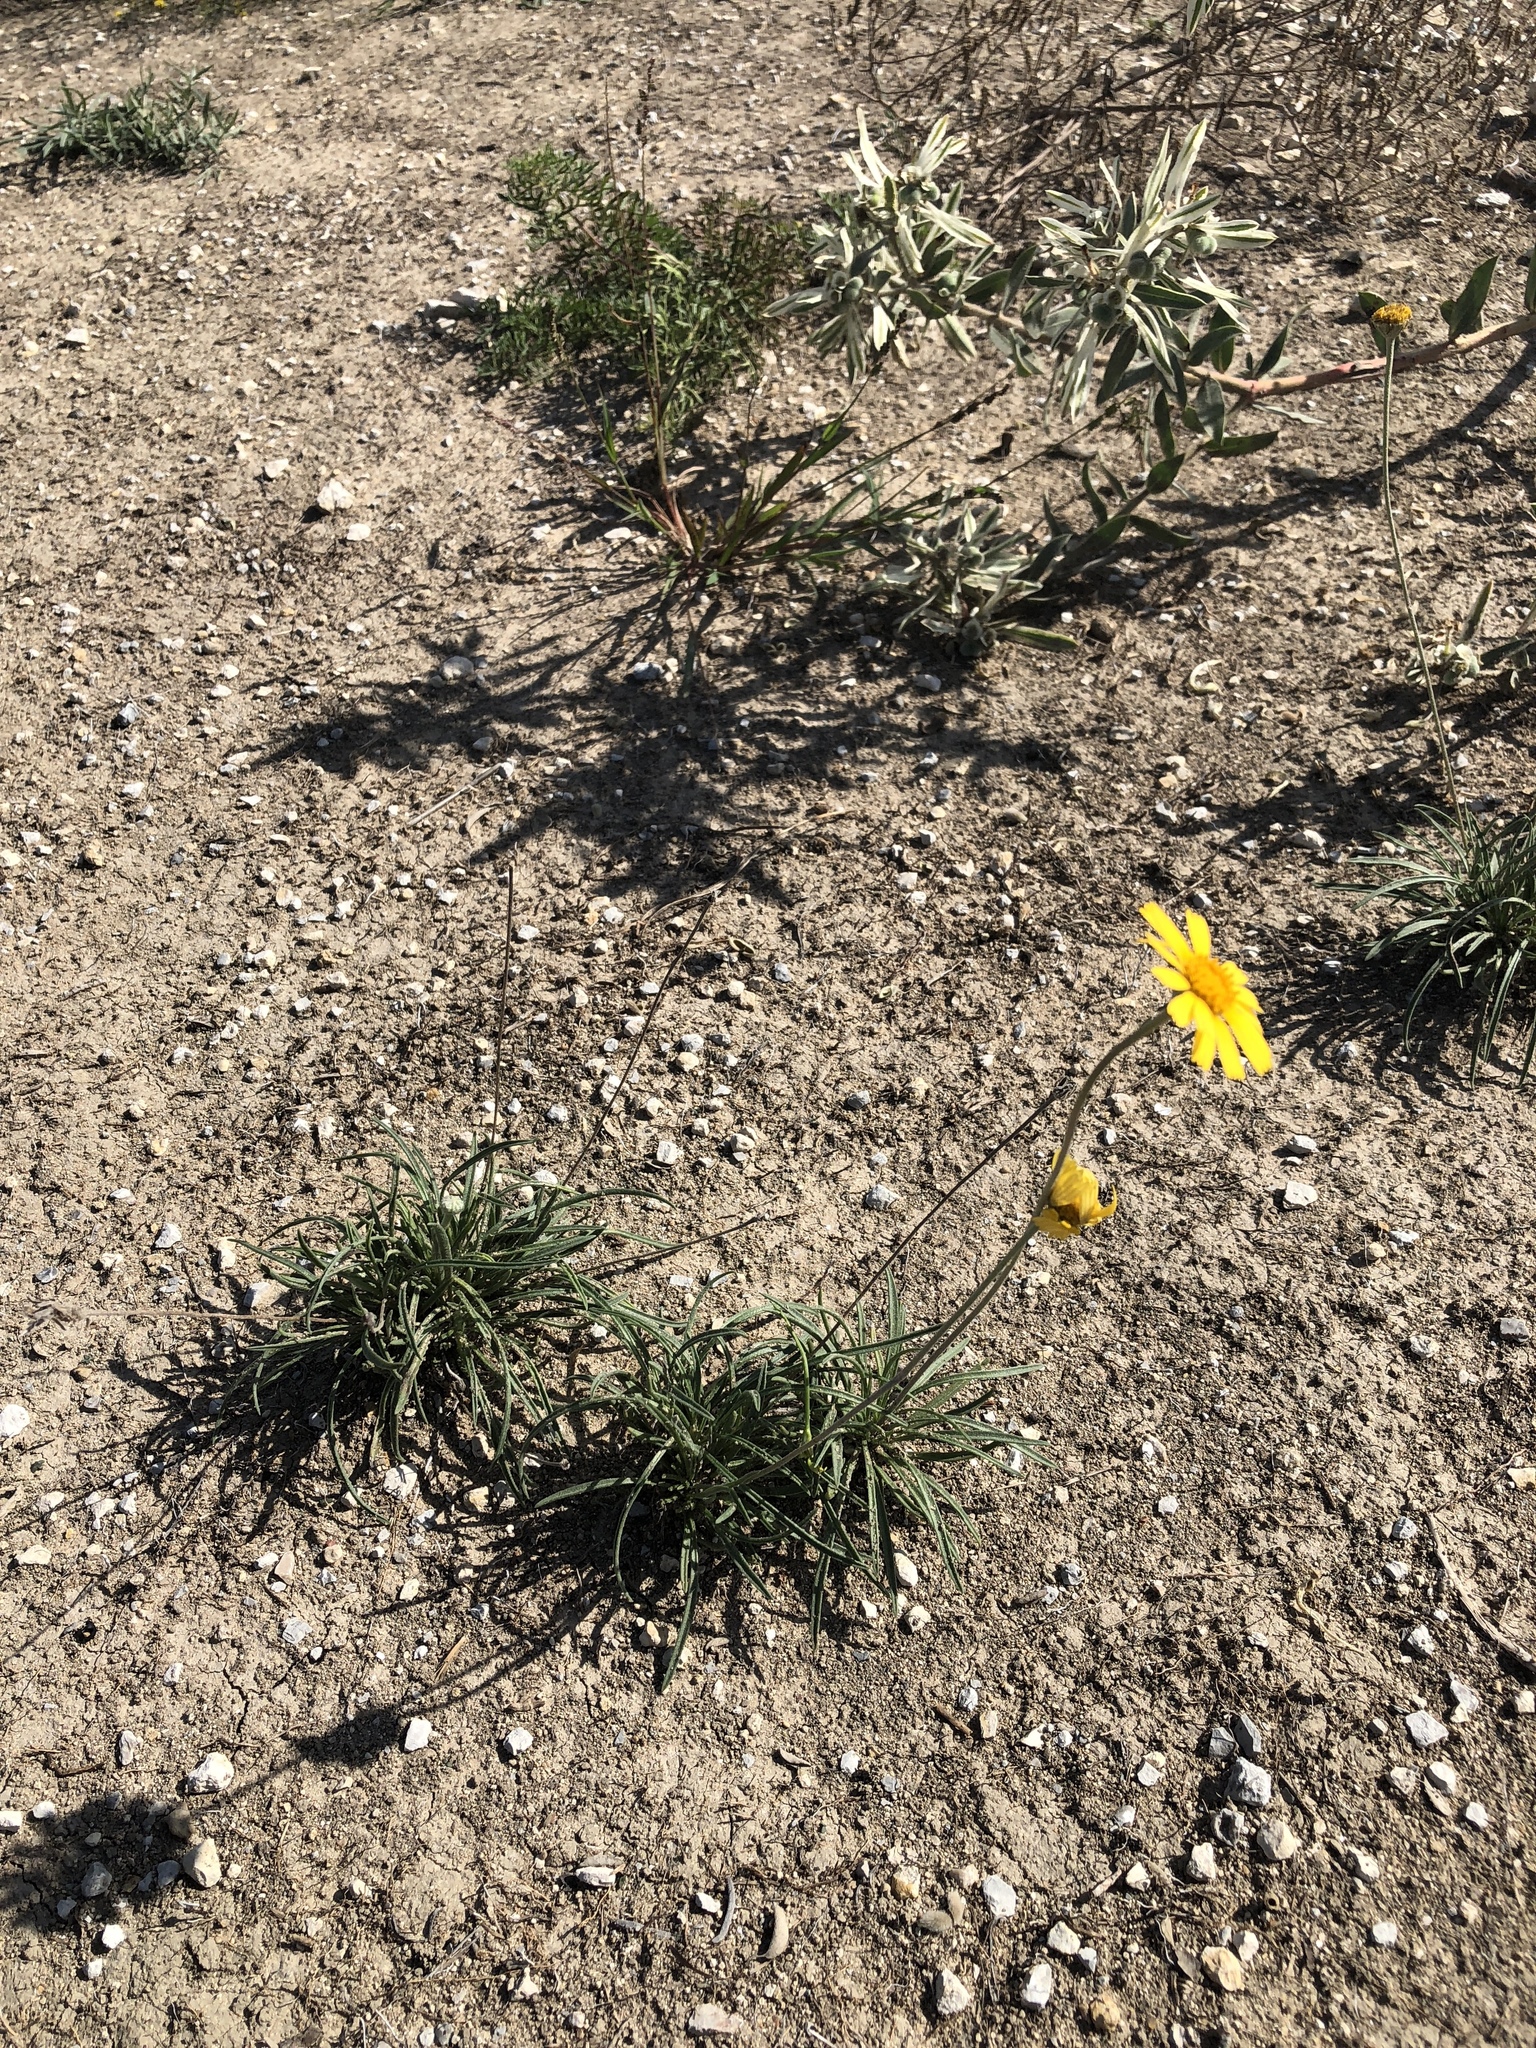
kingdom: Plantae
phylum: Tracheophyta
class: Magnoliopsida
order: Asterales
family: Asteraceae
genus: Tetraneuris
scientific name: Tetraneuris scaposa
